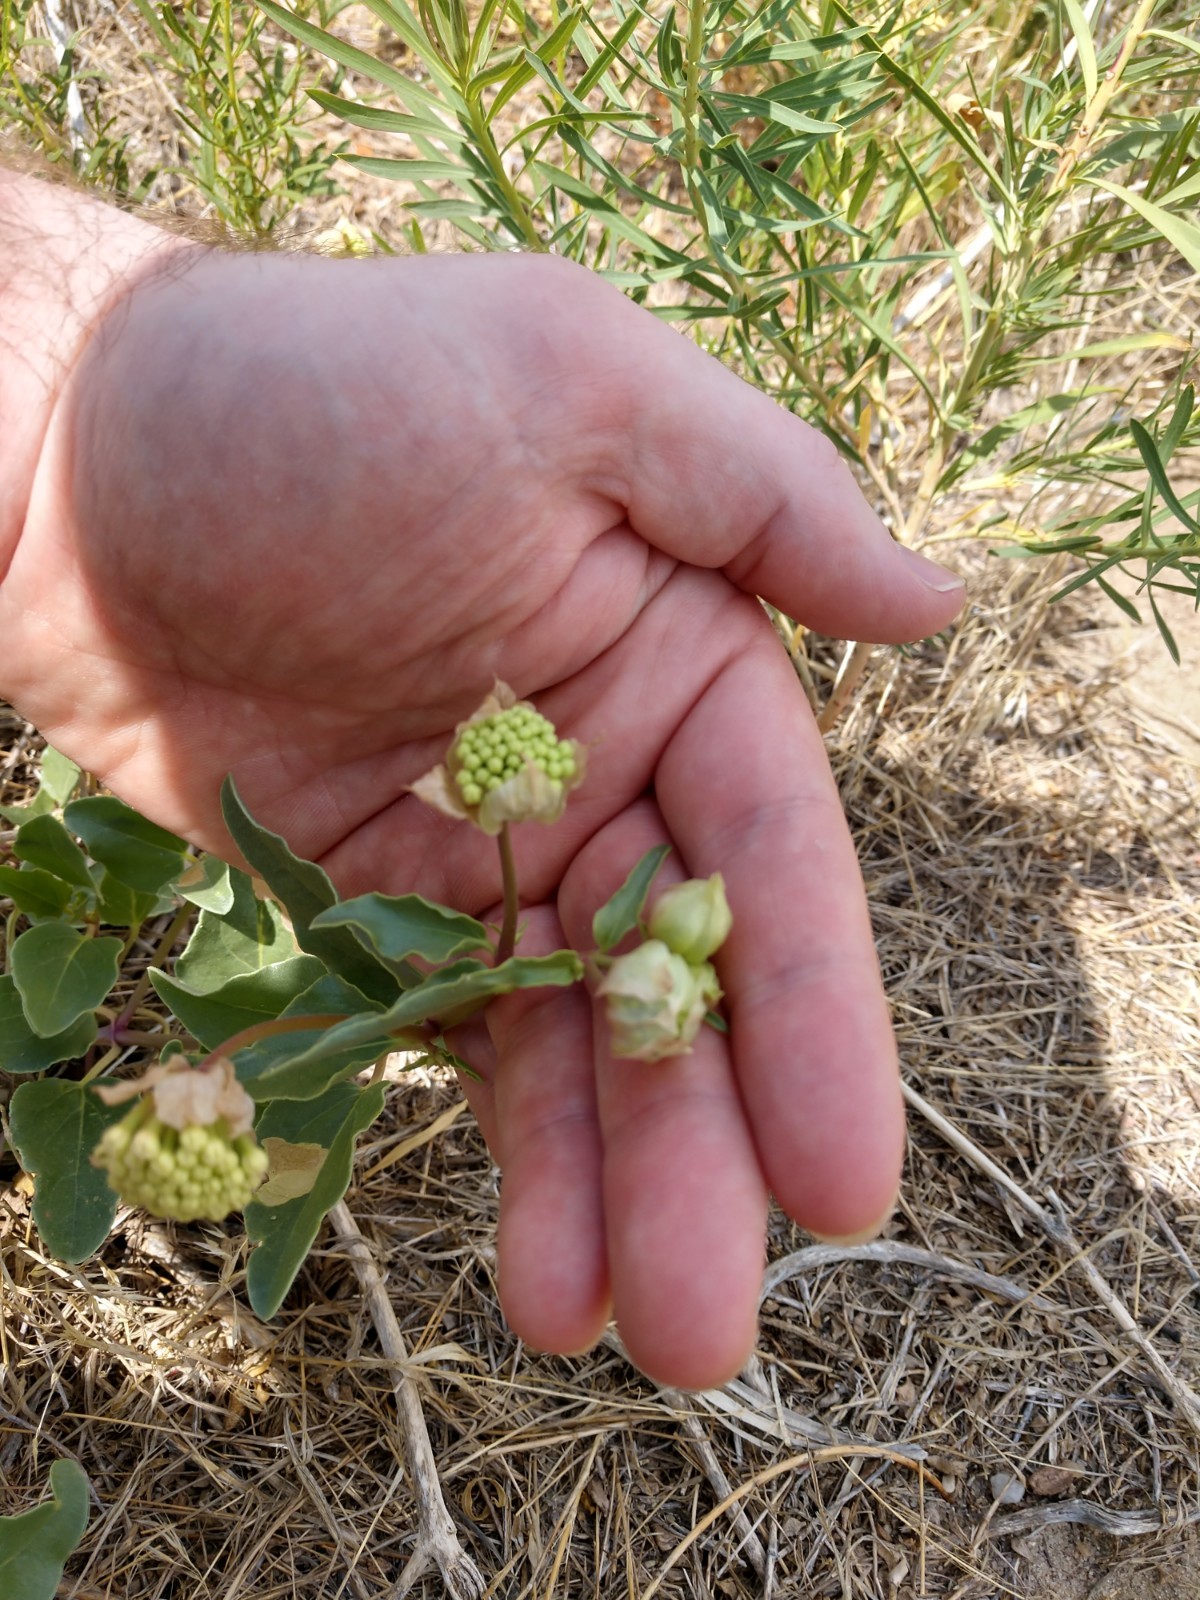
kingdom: Plantae
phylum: Tracheophyta
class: Magnoliopsida
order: Caryophyllales
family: Nyctaginaceae
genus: Abronia
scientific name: Abronia fragrans
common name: Fragrant sand-verbena
